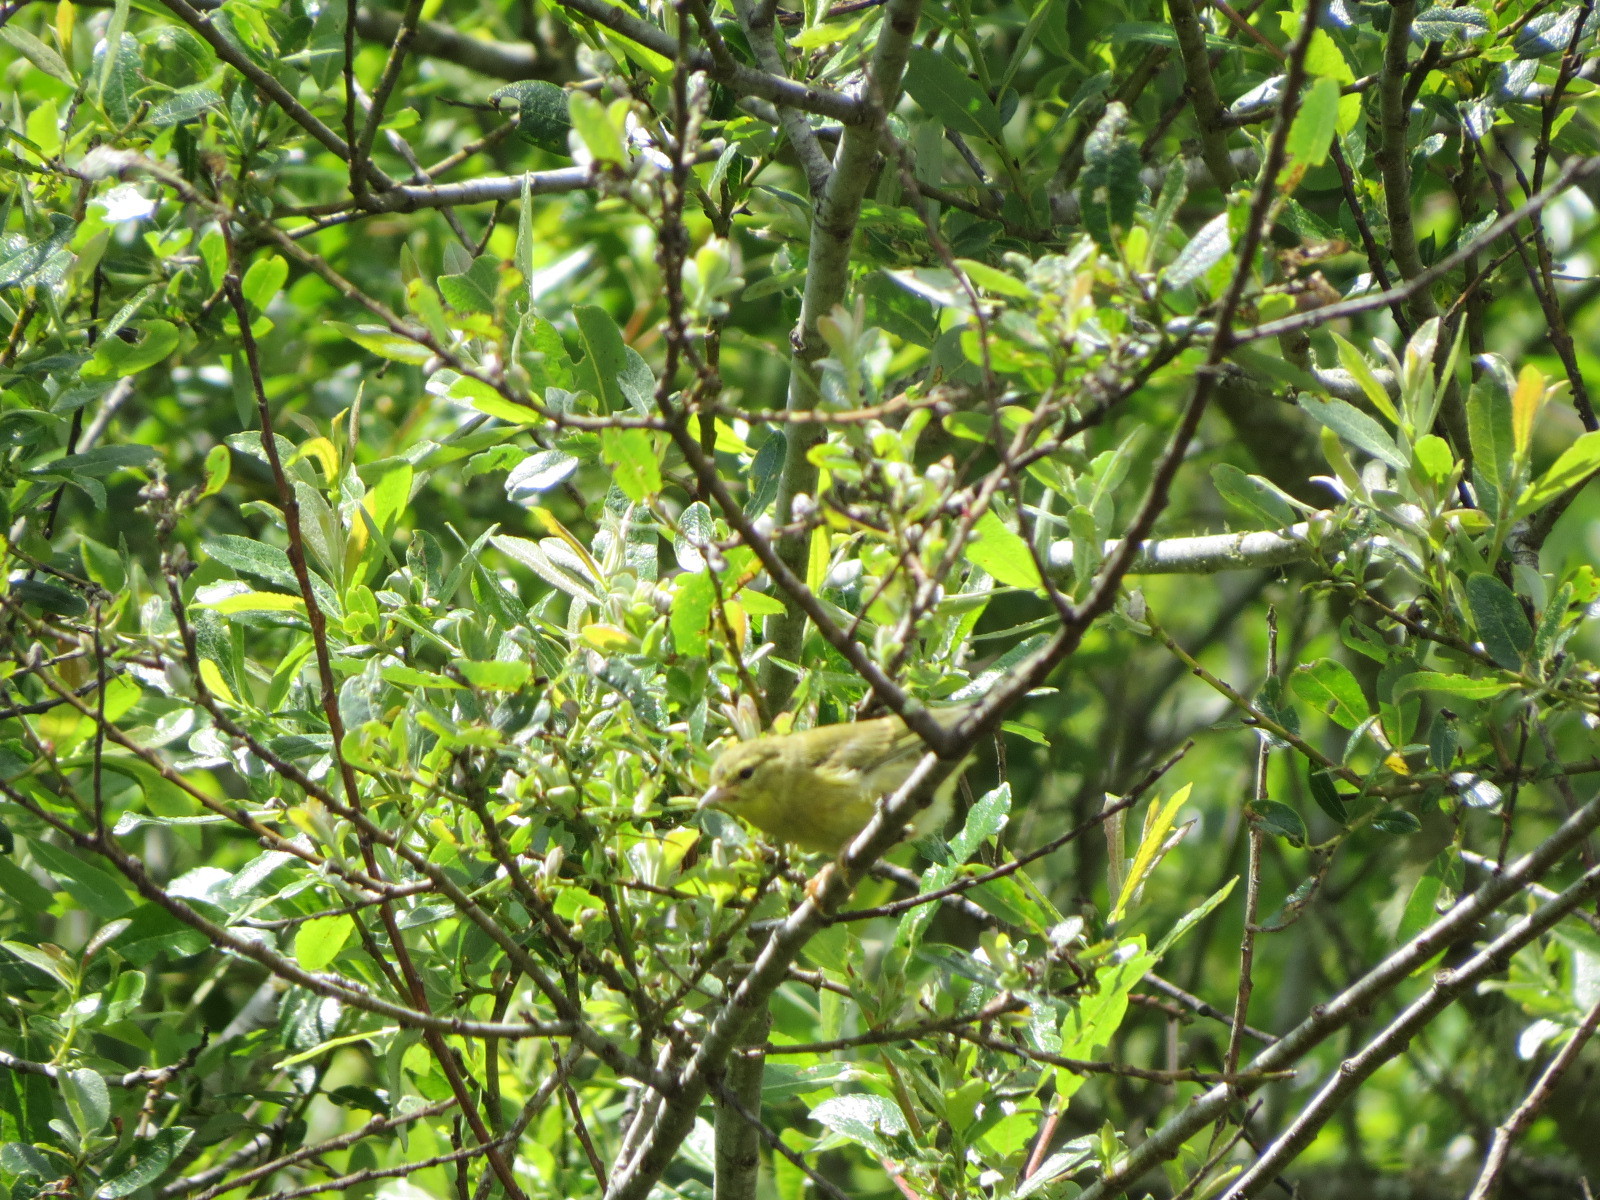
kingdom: Animalia
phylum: Chordata
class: Aves
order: Passeriformes
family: Parulidae
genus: Leiothlypis
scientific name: Leiothlypis celata
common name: Orange-crowned warbler
